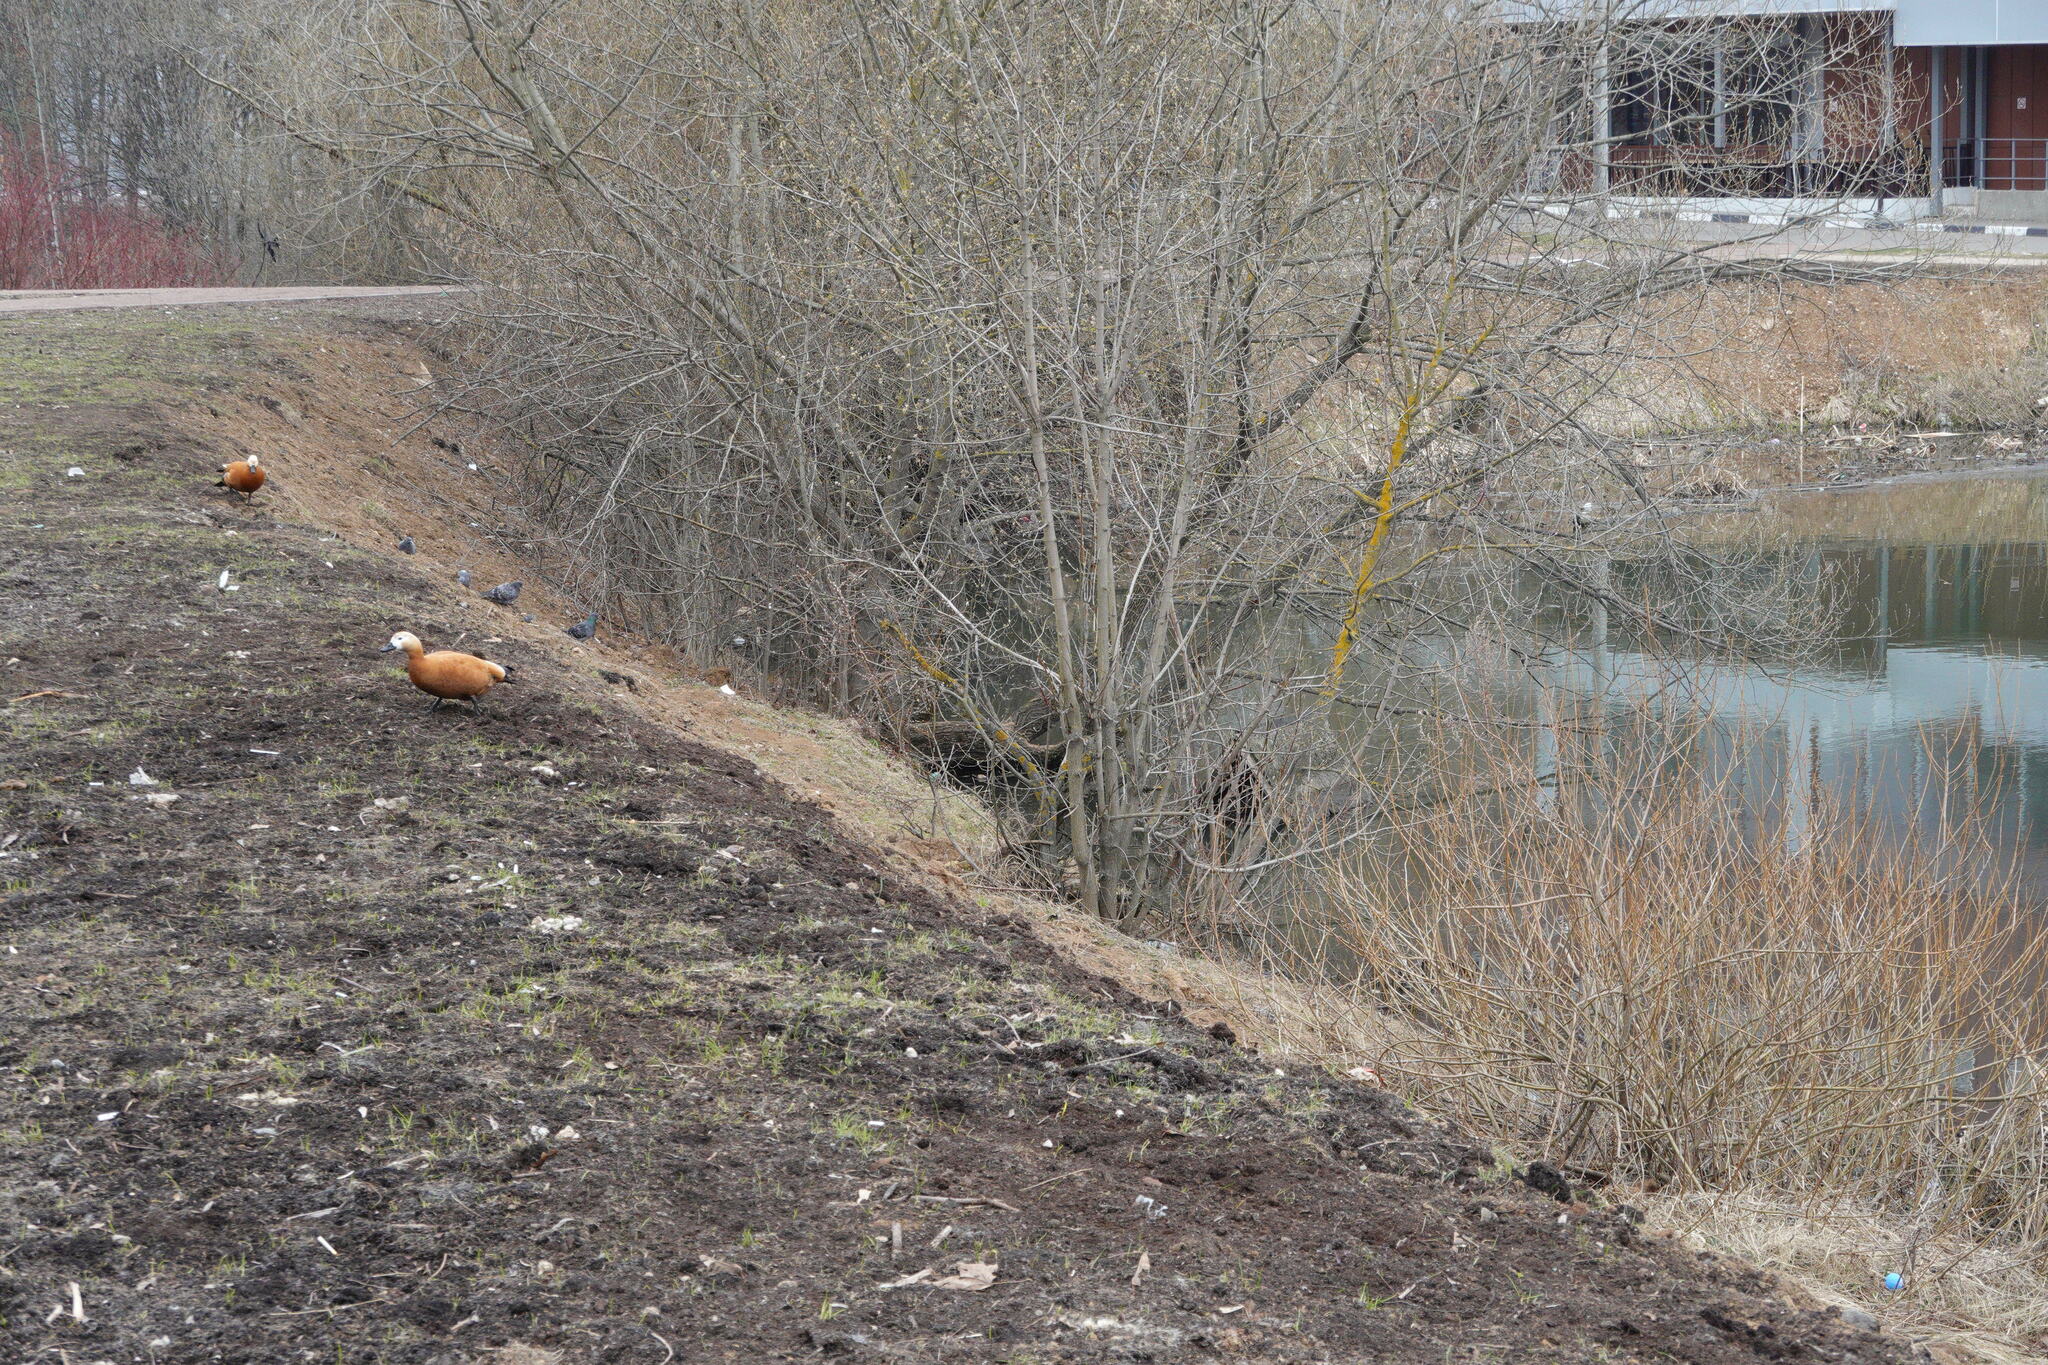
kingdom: Animalia
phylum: Chordata
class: Aves
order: Anseriformes
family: Anatidae
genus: Tadorna
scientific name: Tadorna ferruginea
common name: Ruddy shelduck
